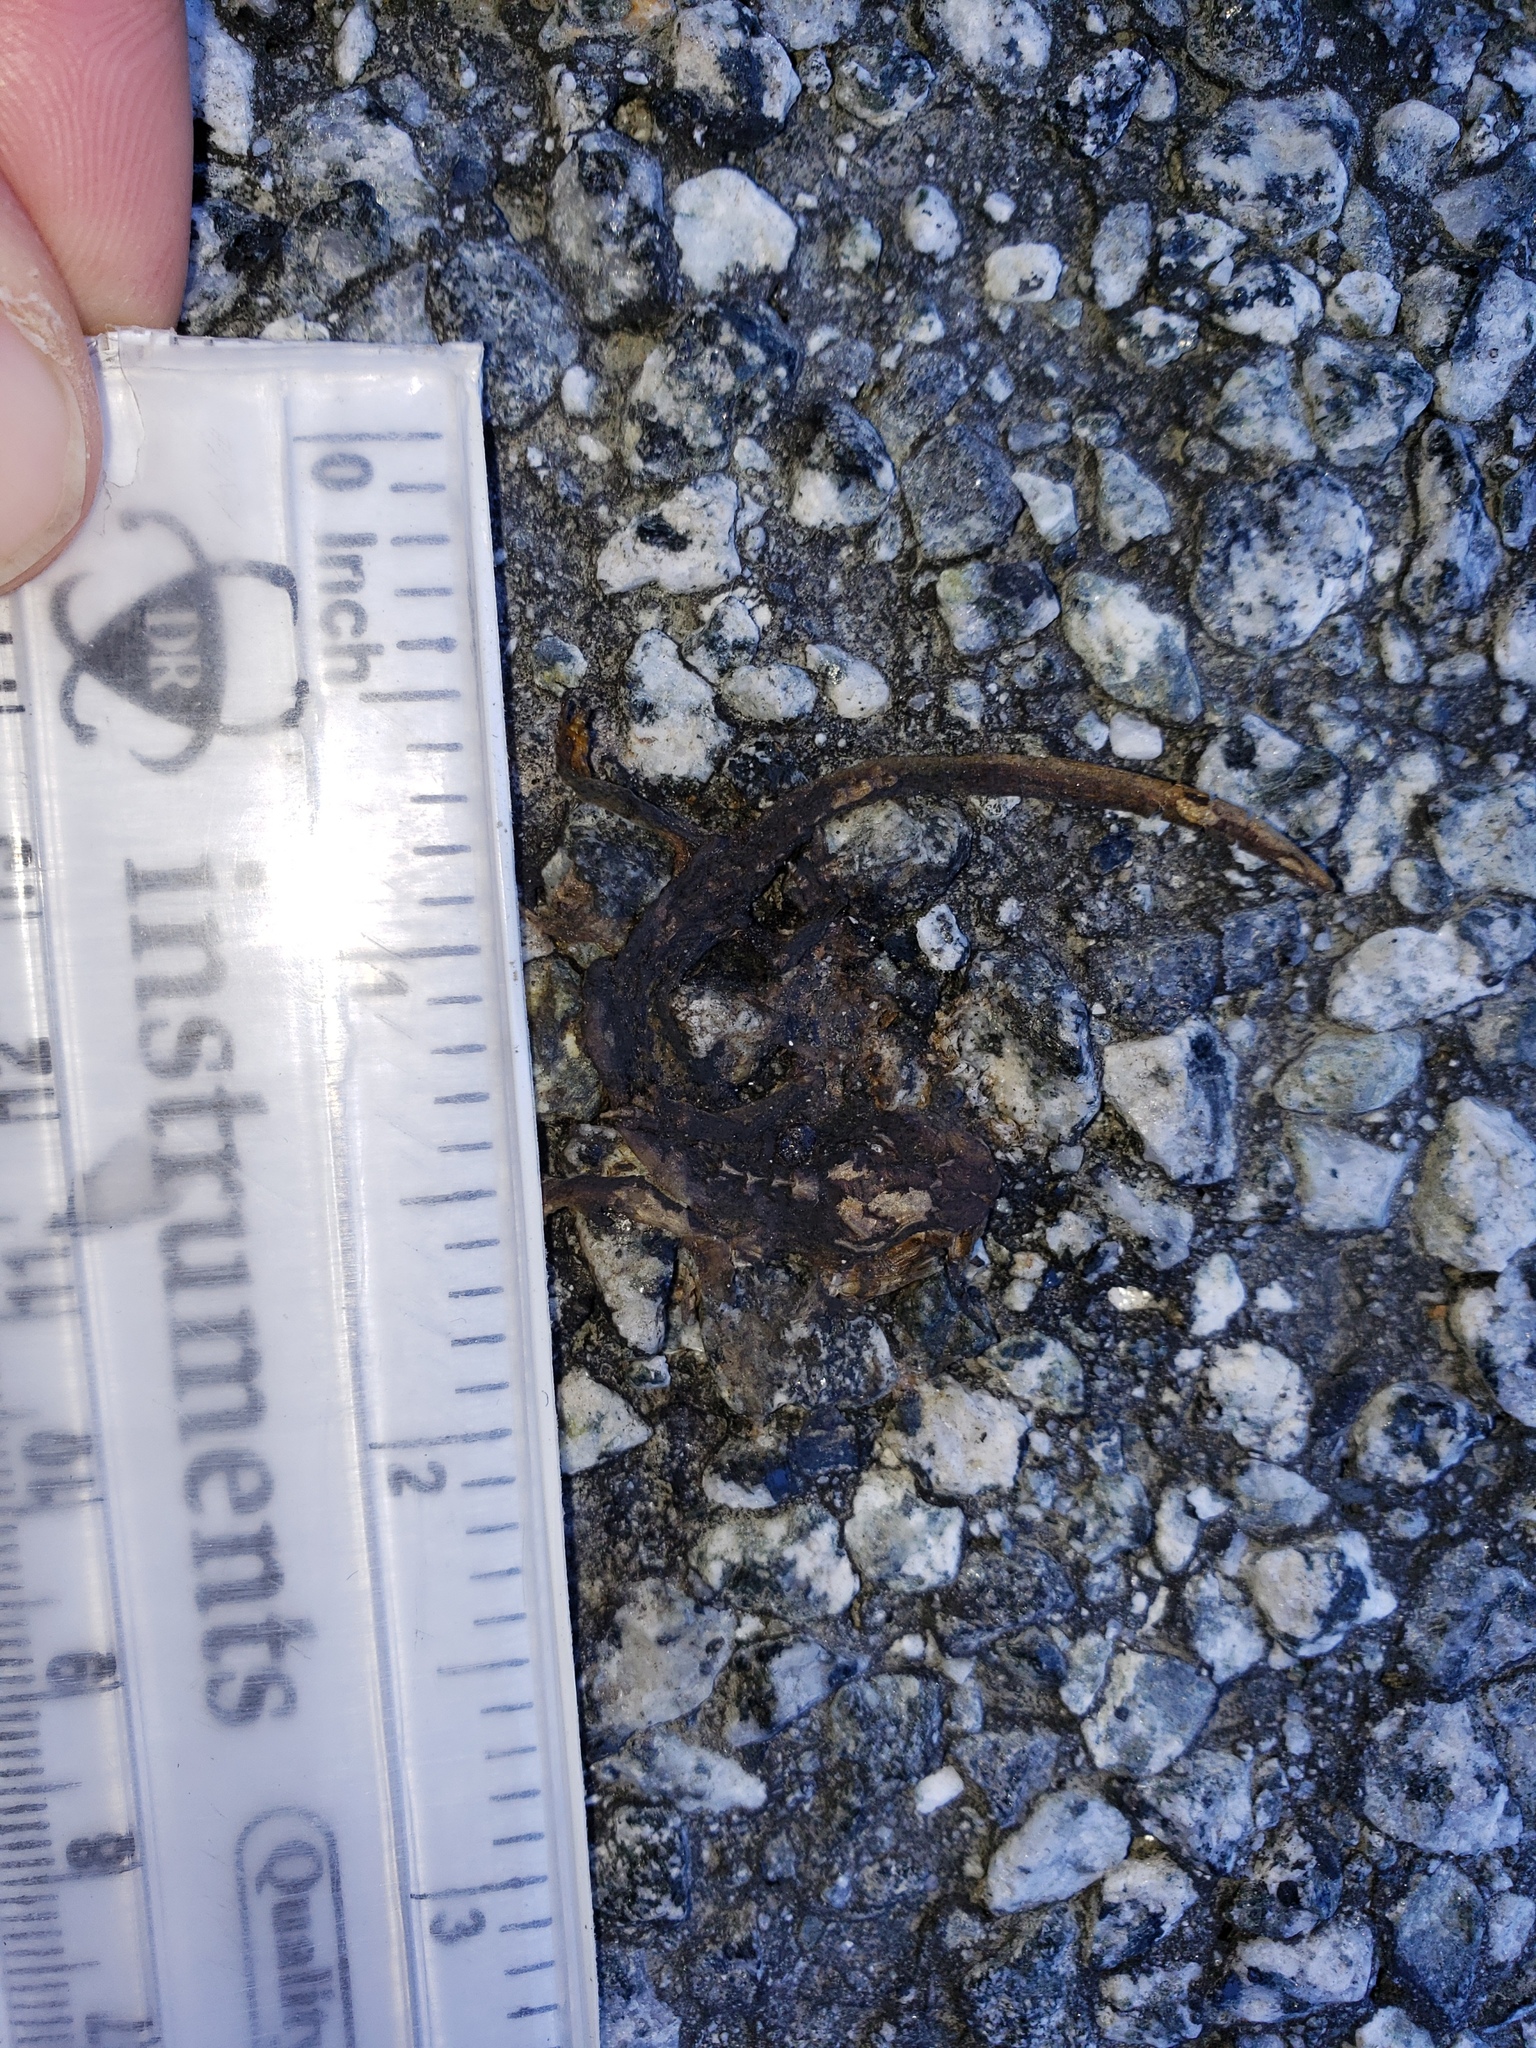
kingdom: Animalia
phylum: Chordata
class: Amphibia
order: Caudata
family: Salamandridae
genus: Taricha
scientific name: Taricha
